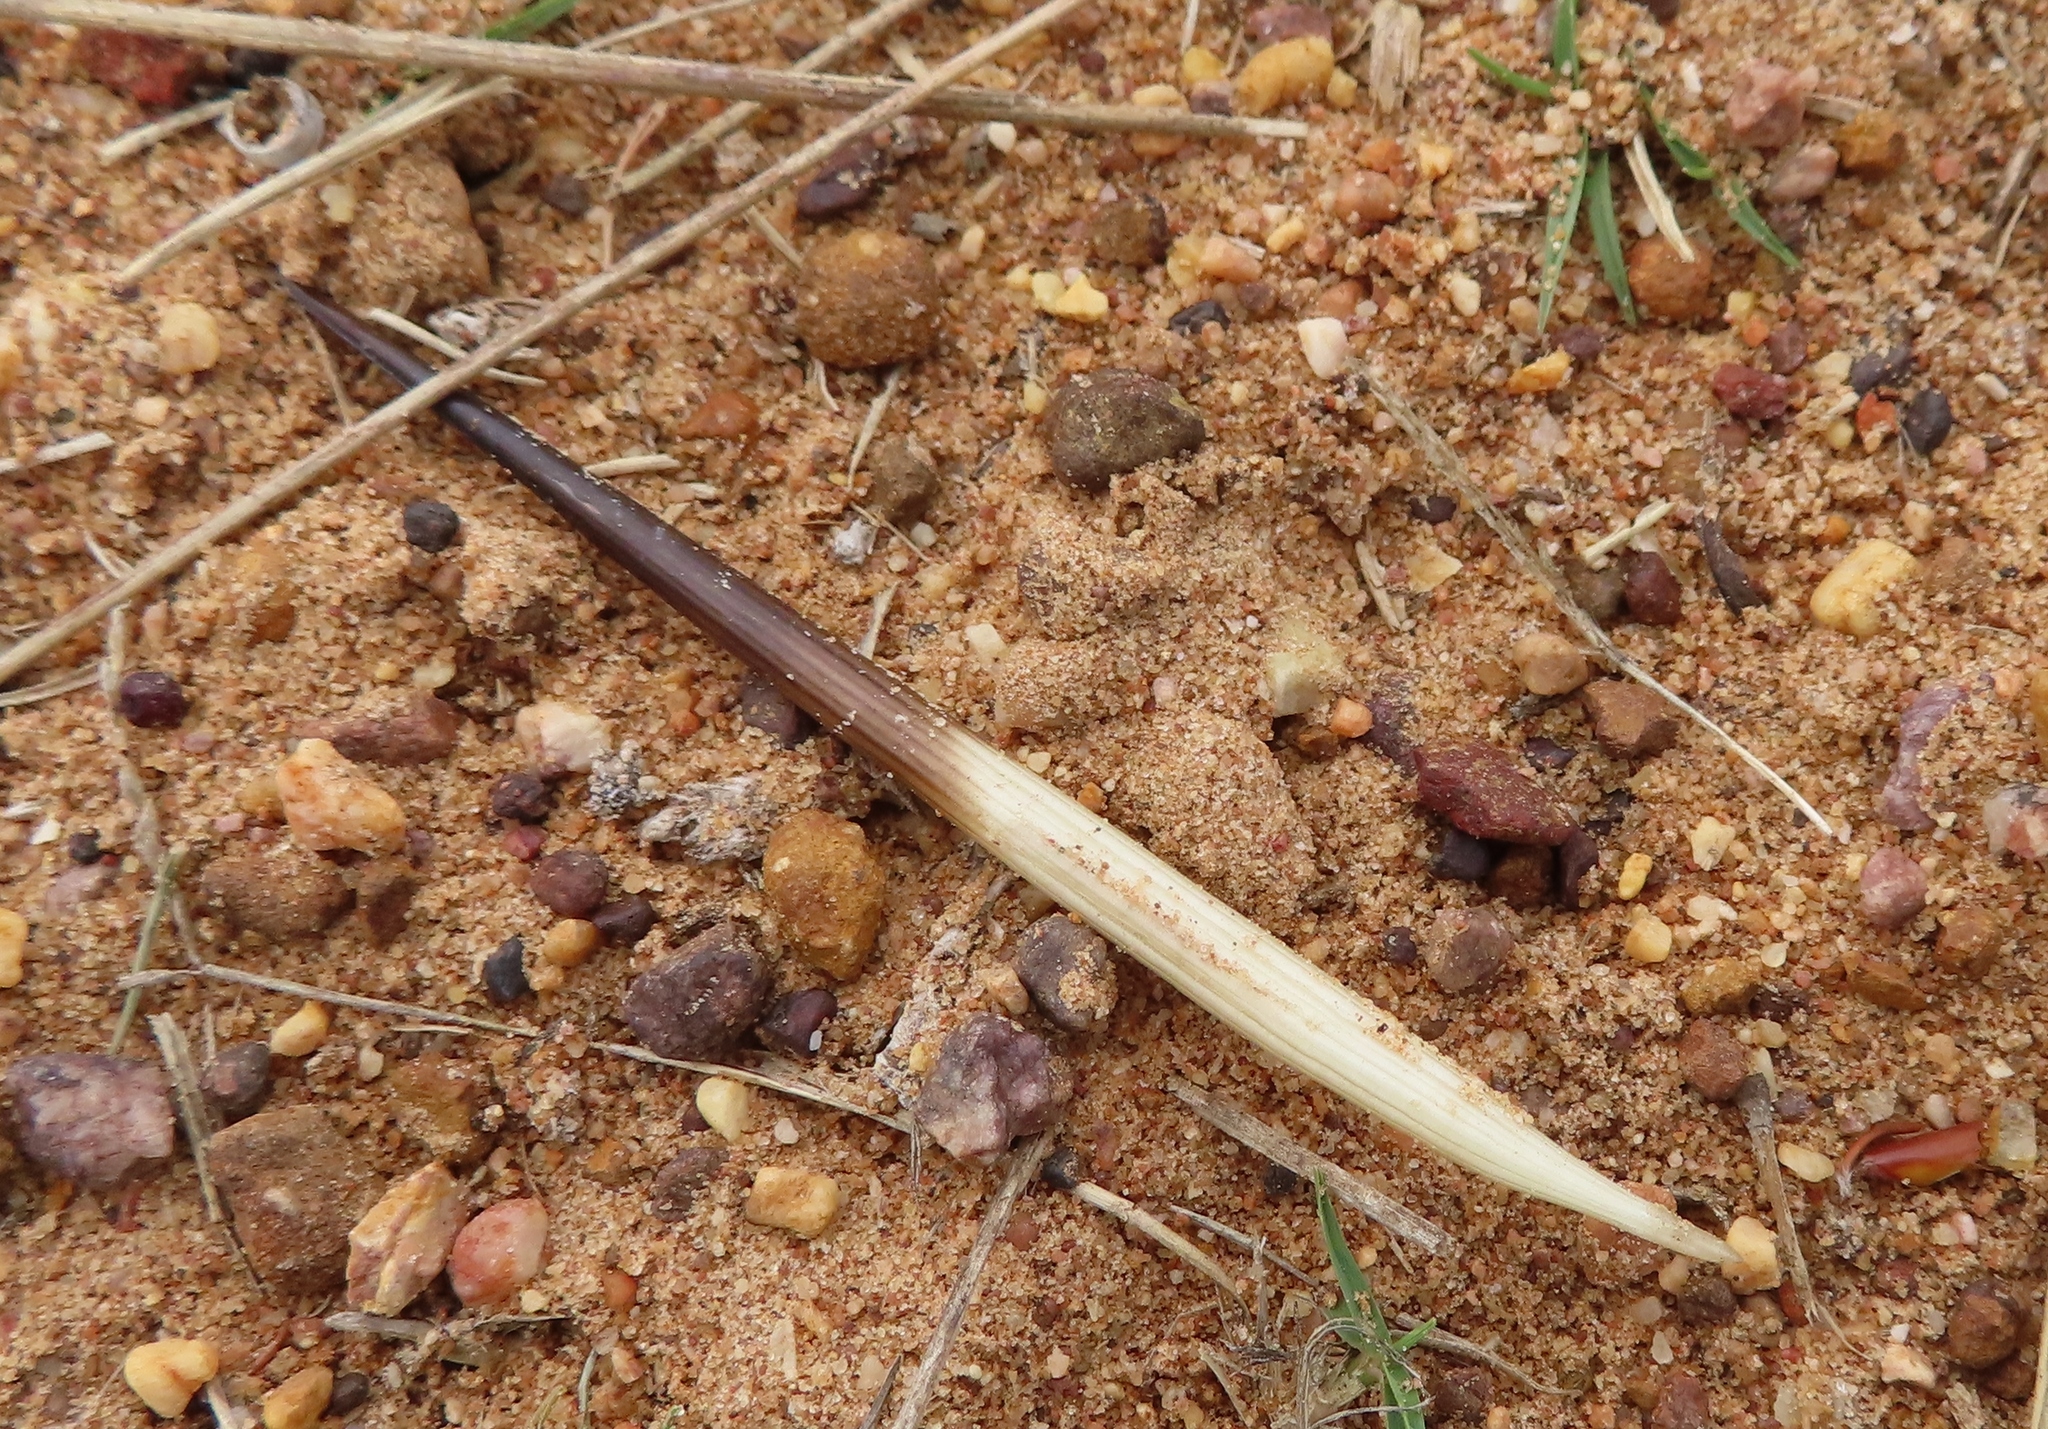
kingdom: Animalia
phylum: Chordata
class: Mammalia
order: Rodentia
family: Hystricidae
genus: Hystrix
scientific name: Hystrix africaeaustralis
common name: Cape porcupine
